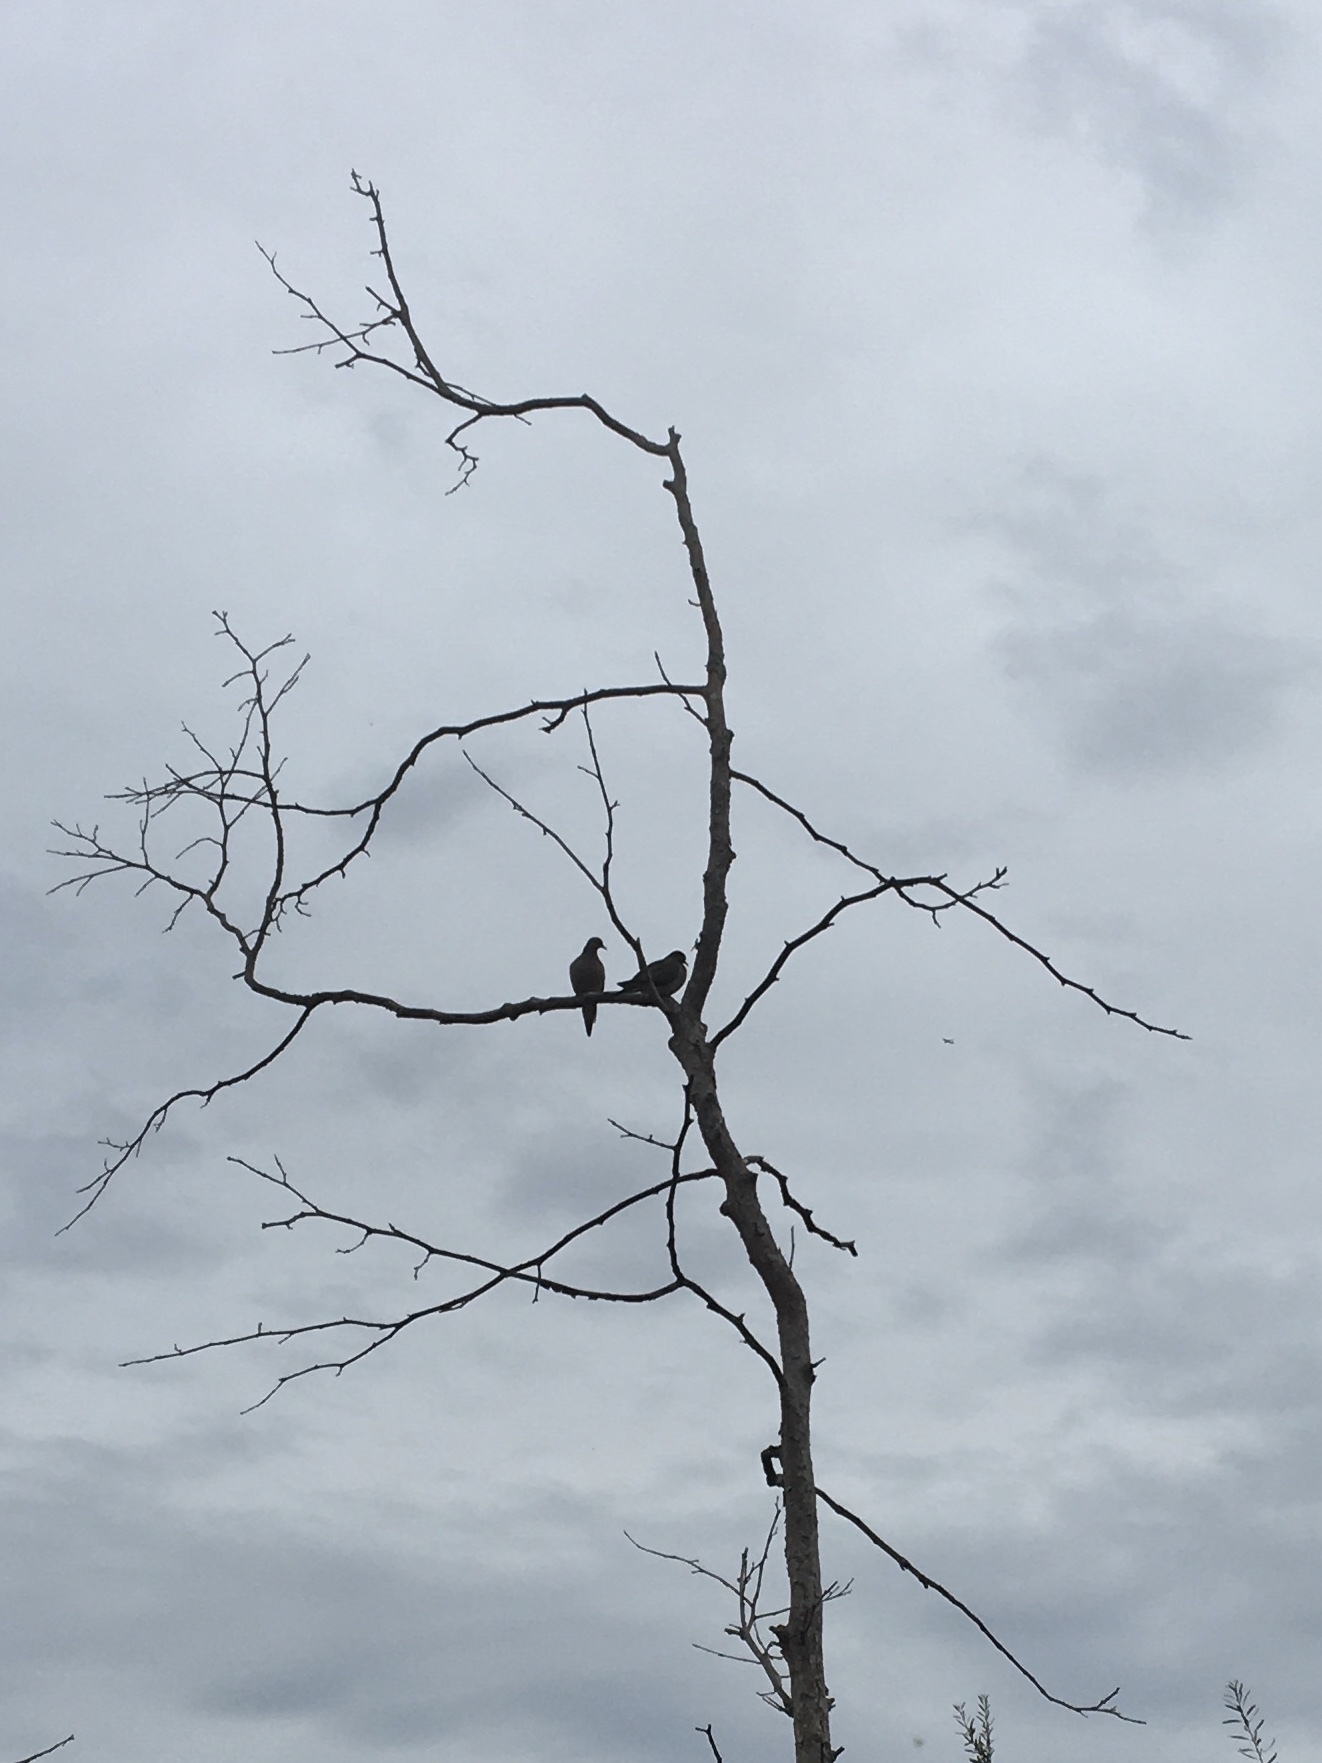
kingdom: Animalia
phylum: Chordata
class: Aves
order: Columbiformes
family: Columbidae
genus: Zenaida
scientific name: Zenaida macroura
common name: Mourning dove
